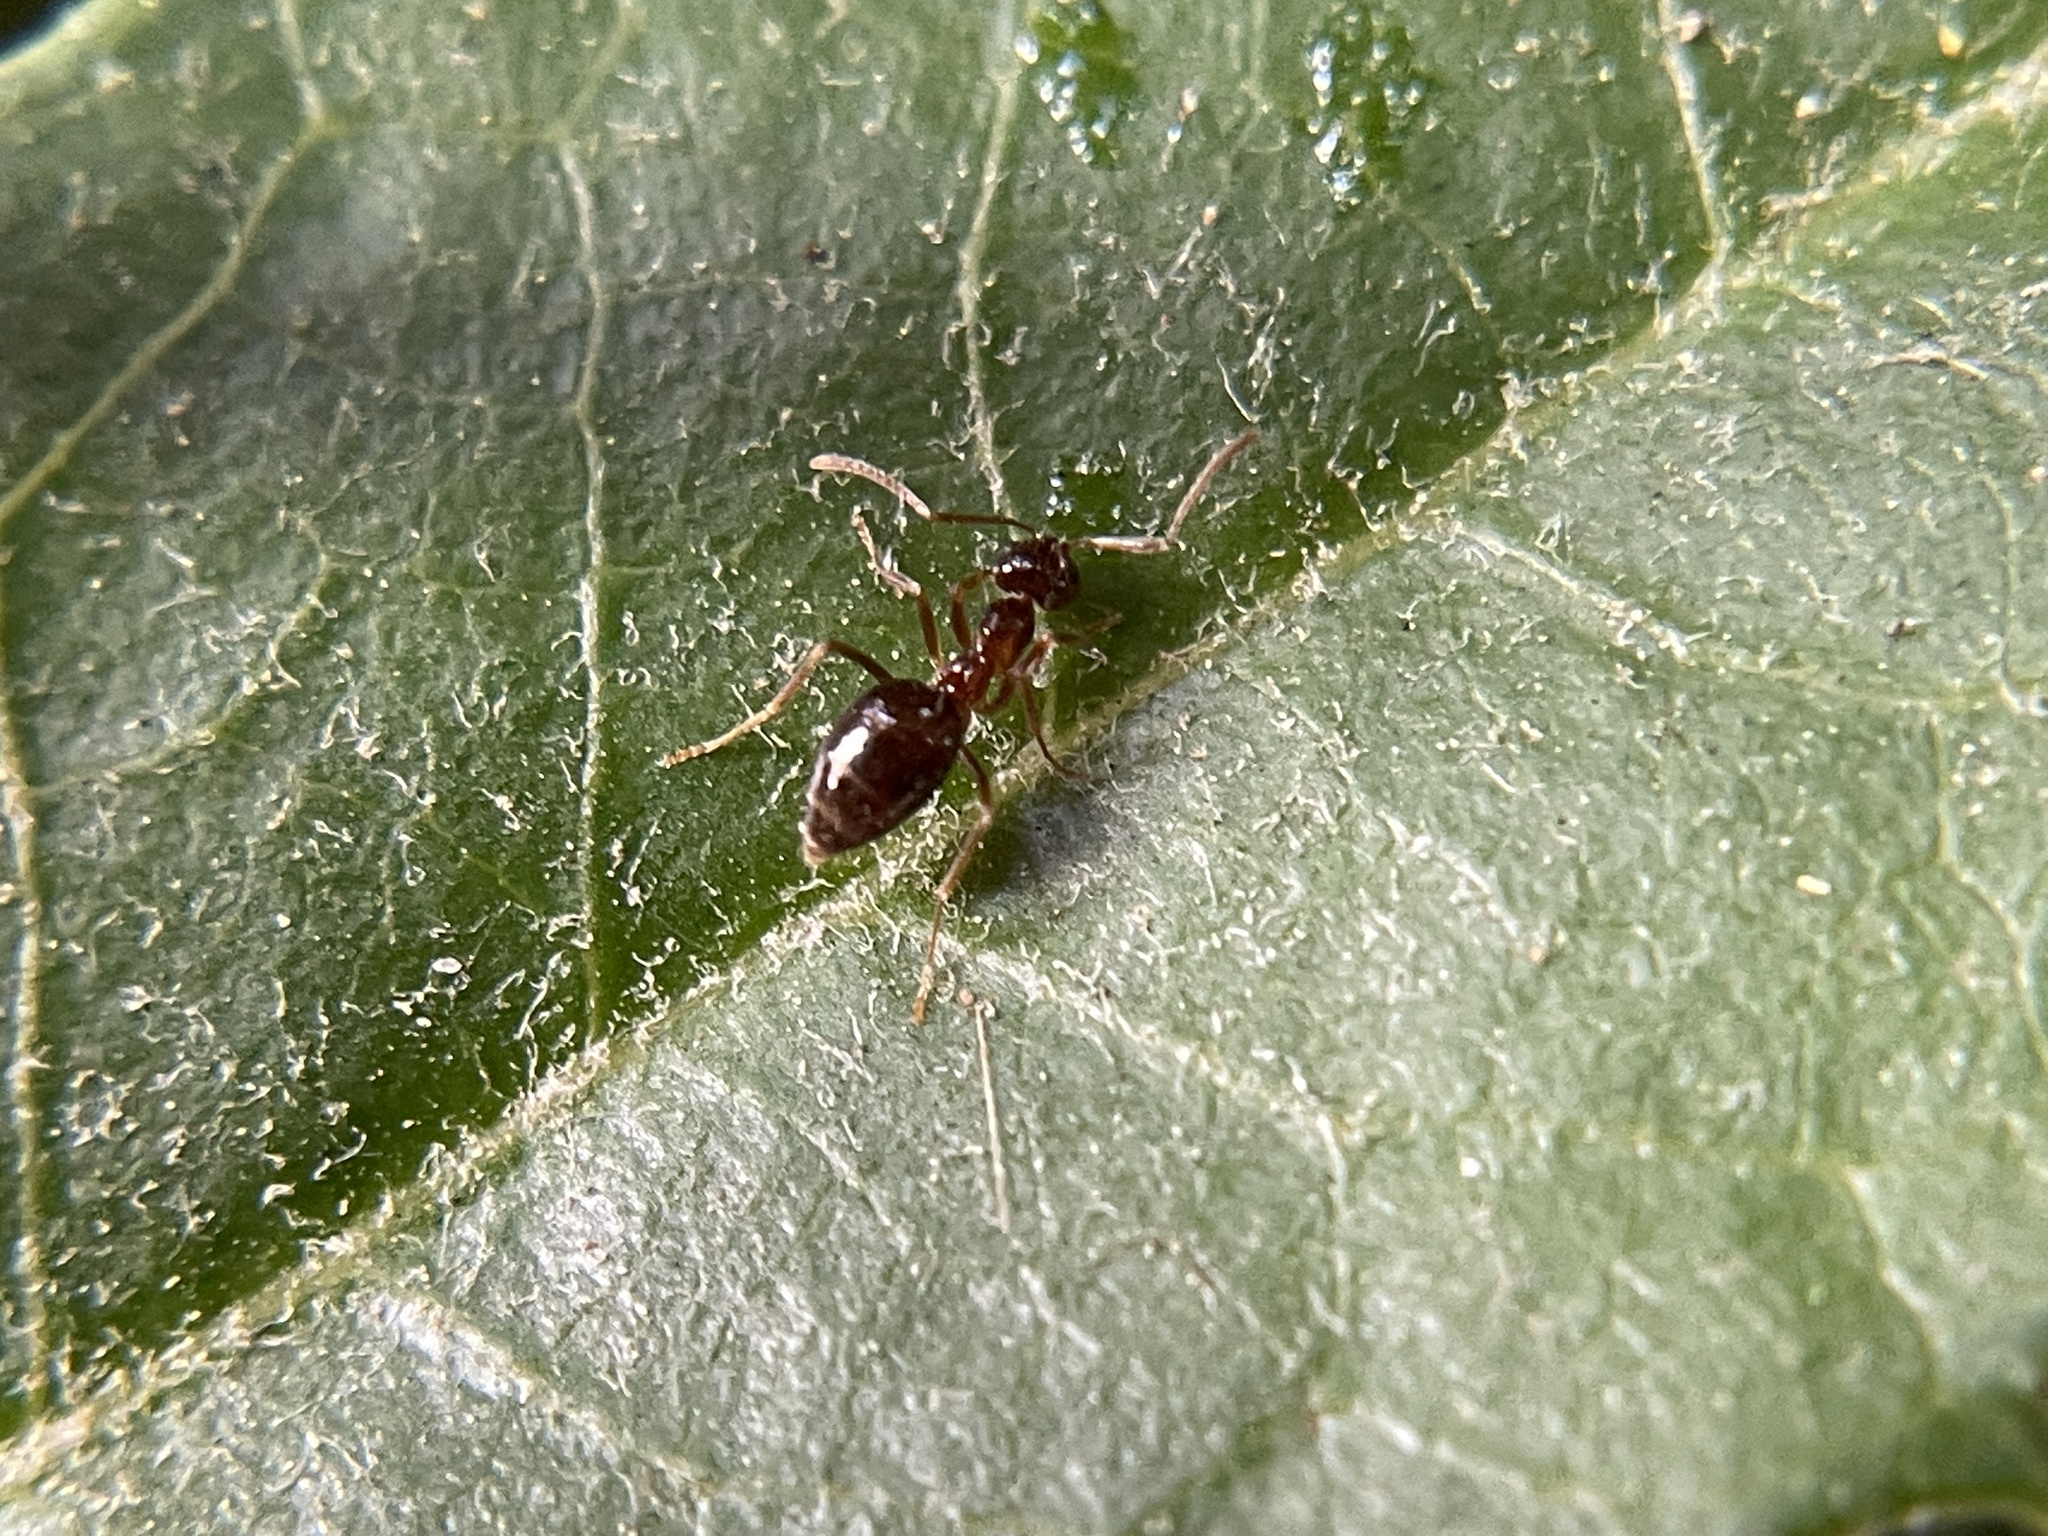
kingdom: Animalia
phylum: Arthropoda
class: Insecta
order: Hymenoptera
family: Formicidae
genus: Prenolepis
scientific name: Prenolepis imparis
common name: Small honey ant
